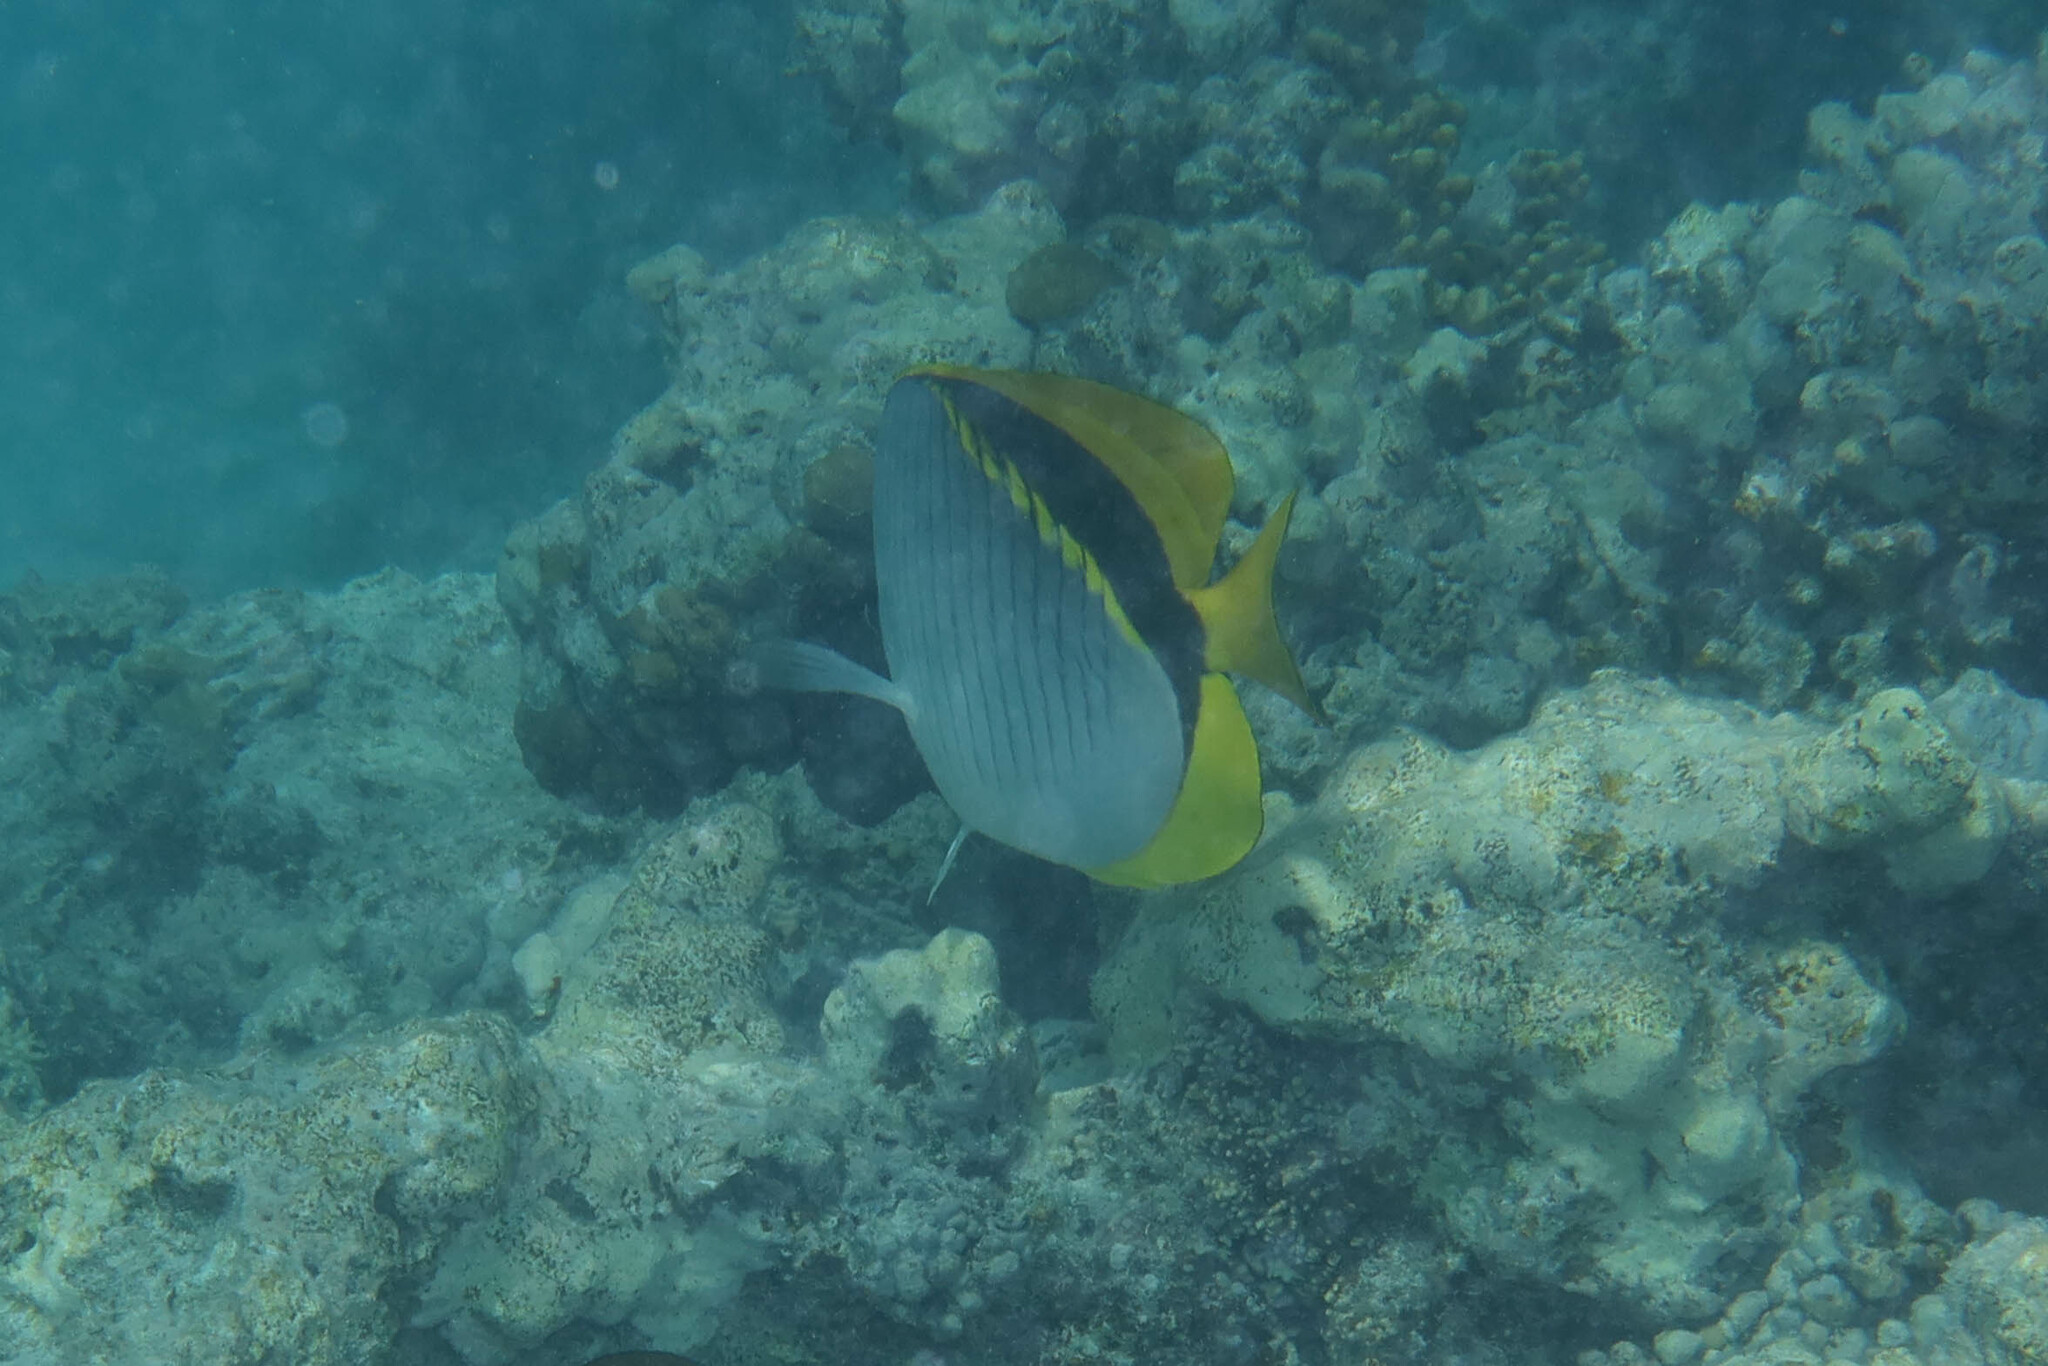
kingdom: Animalia
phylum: Chordata
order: Perciformes
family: Chaetodontidae
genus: Chaetodon
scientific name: Chaetodon lineolatus
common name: Lined butterflyfish
